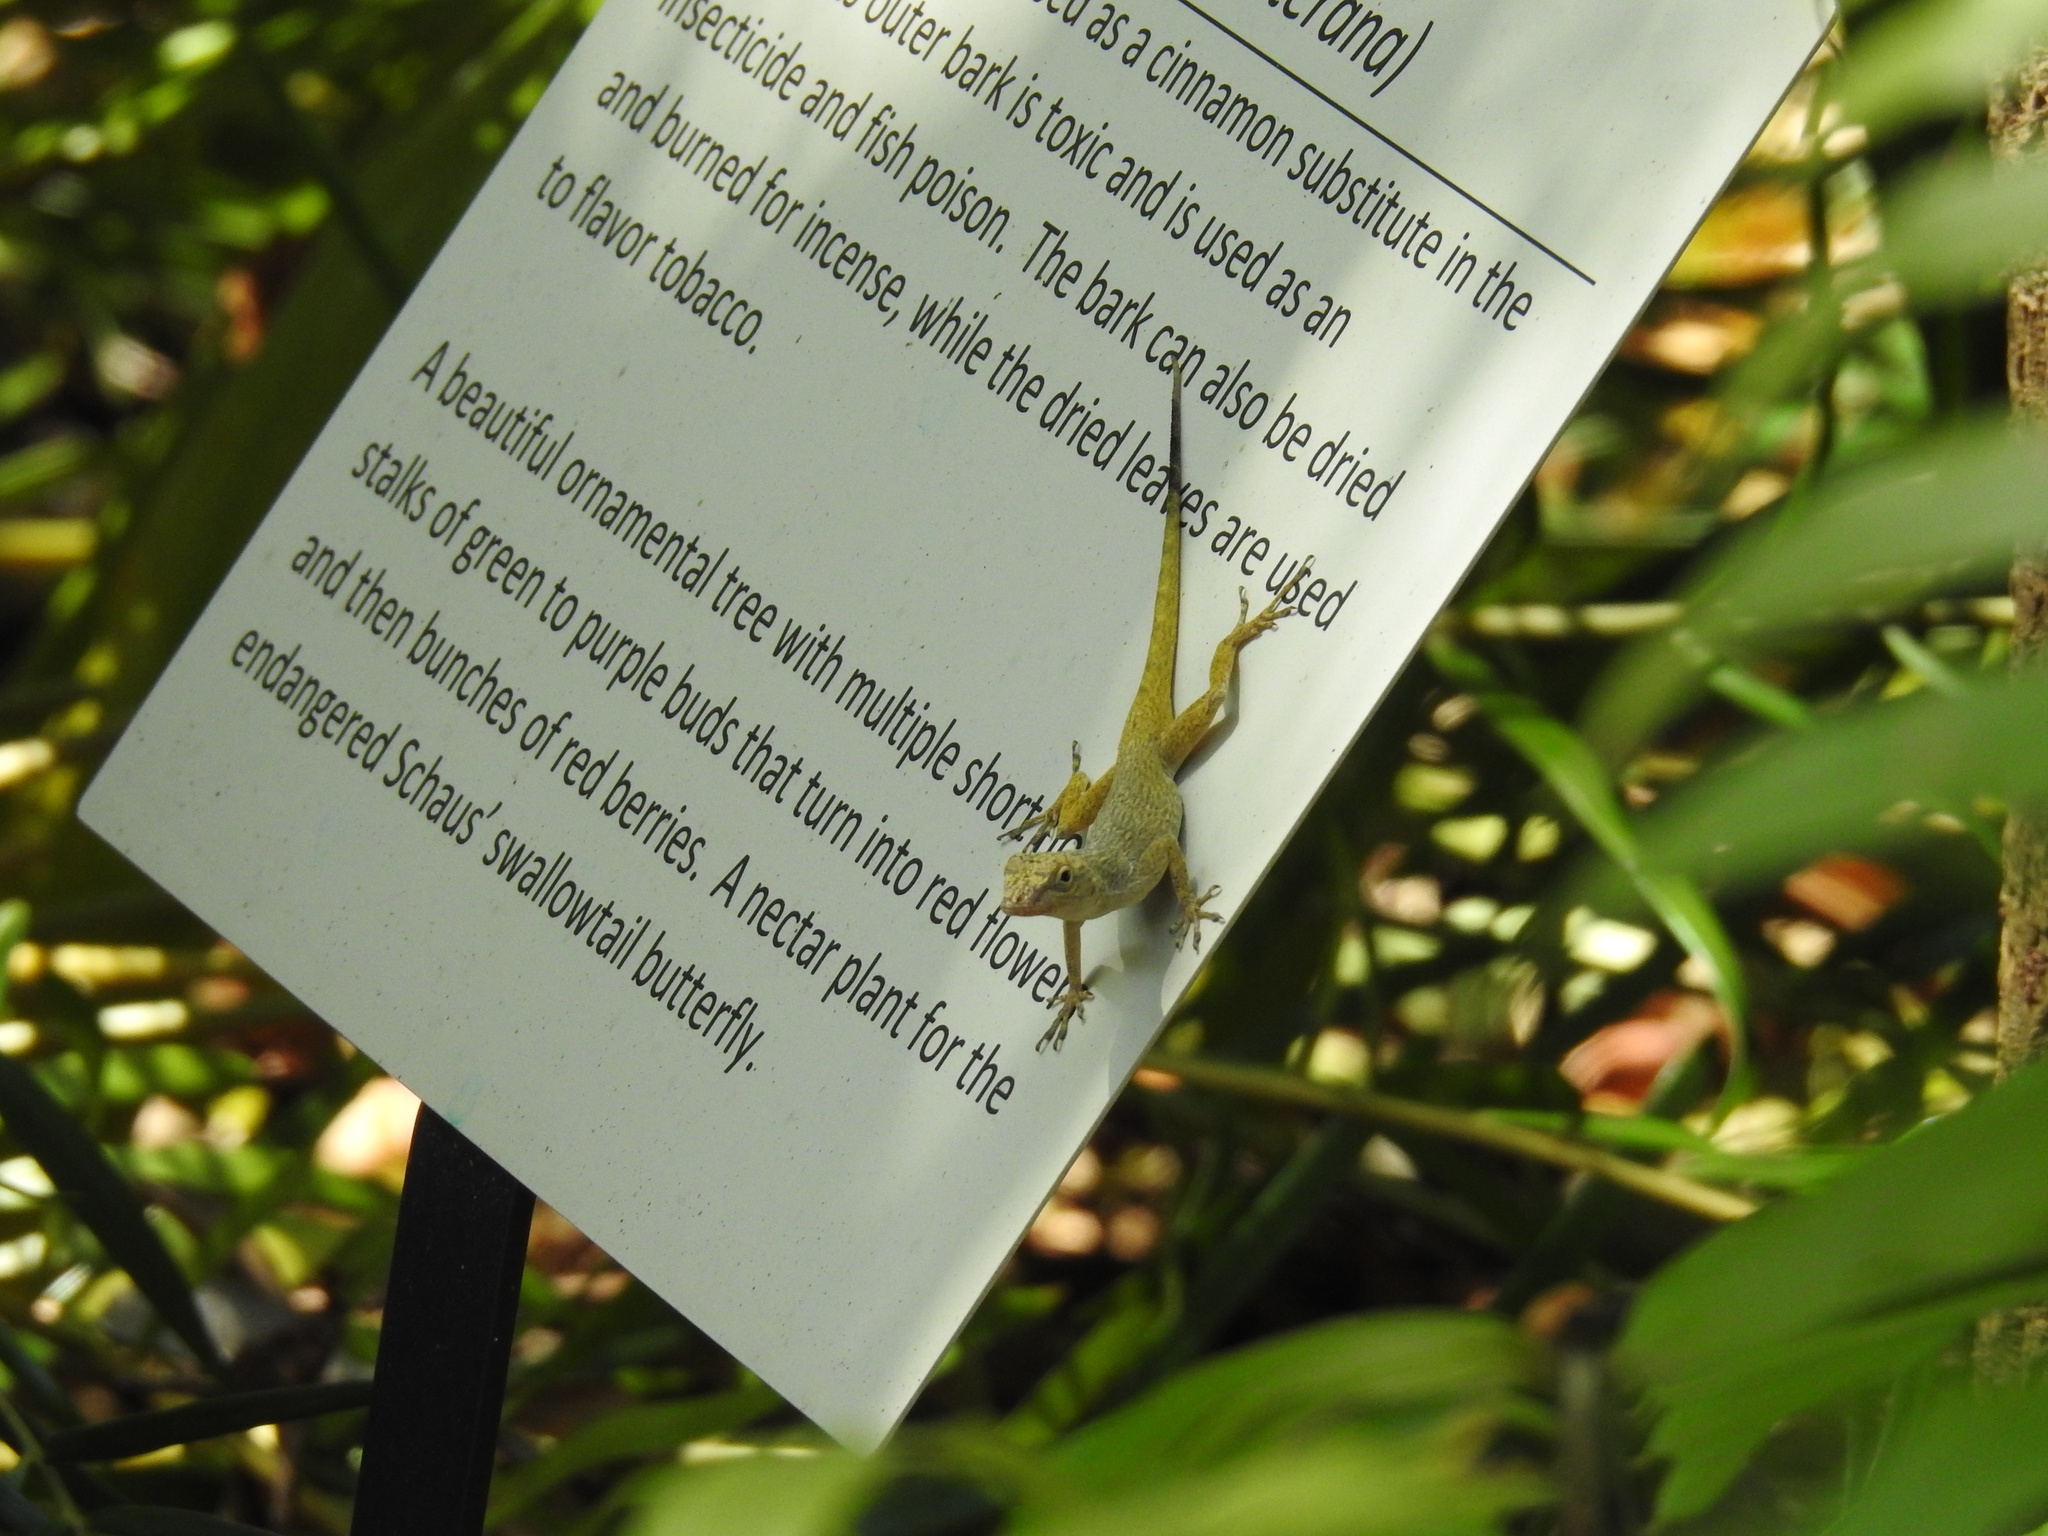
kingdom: Animalia
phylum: Chordata
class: Squamata
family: Dactyloidae
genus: Anolis
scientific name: Anolis distichus
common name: Bark anole
